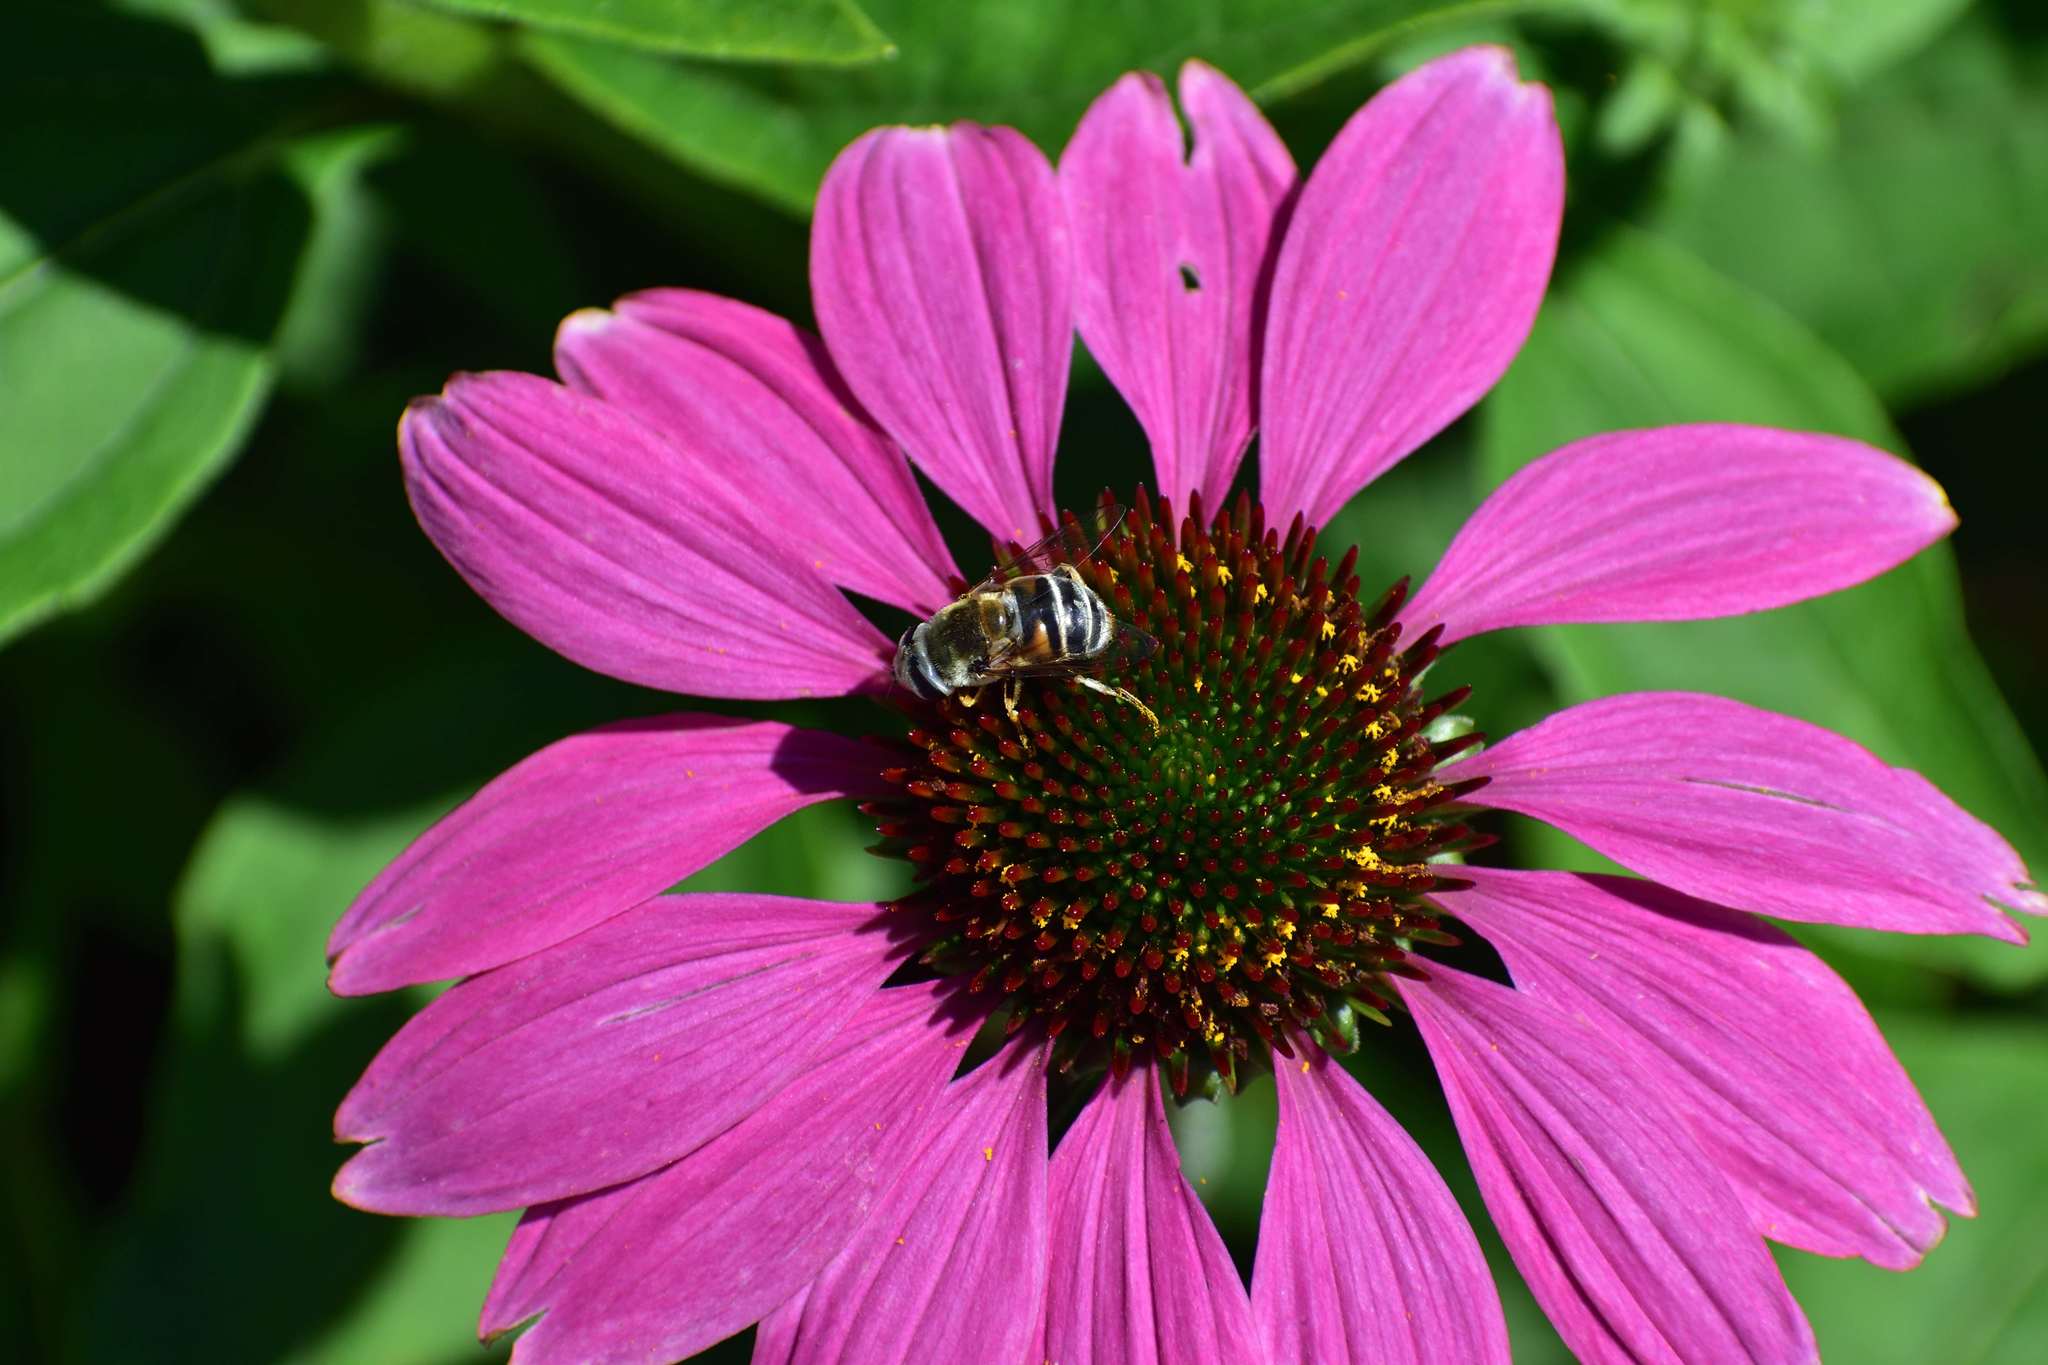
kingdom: Animalia
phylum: Arthropoda
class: Insecta
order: Diptera
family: Syrphidae
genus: Eristalis
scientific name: Eristalis stipator
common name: Yellow-shouldered drone fly
